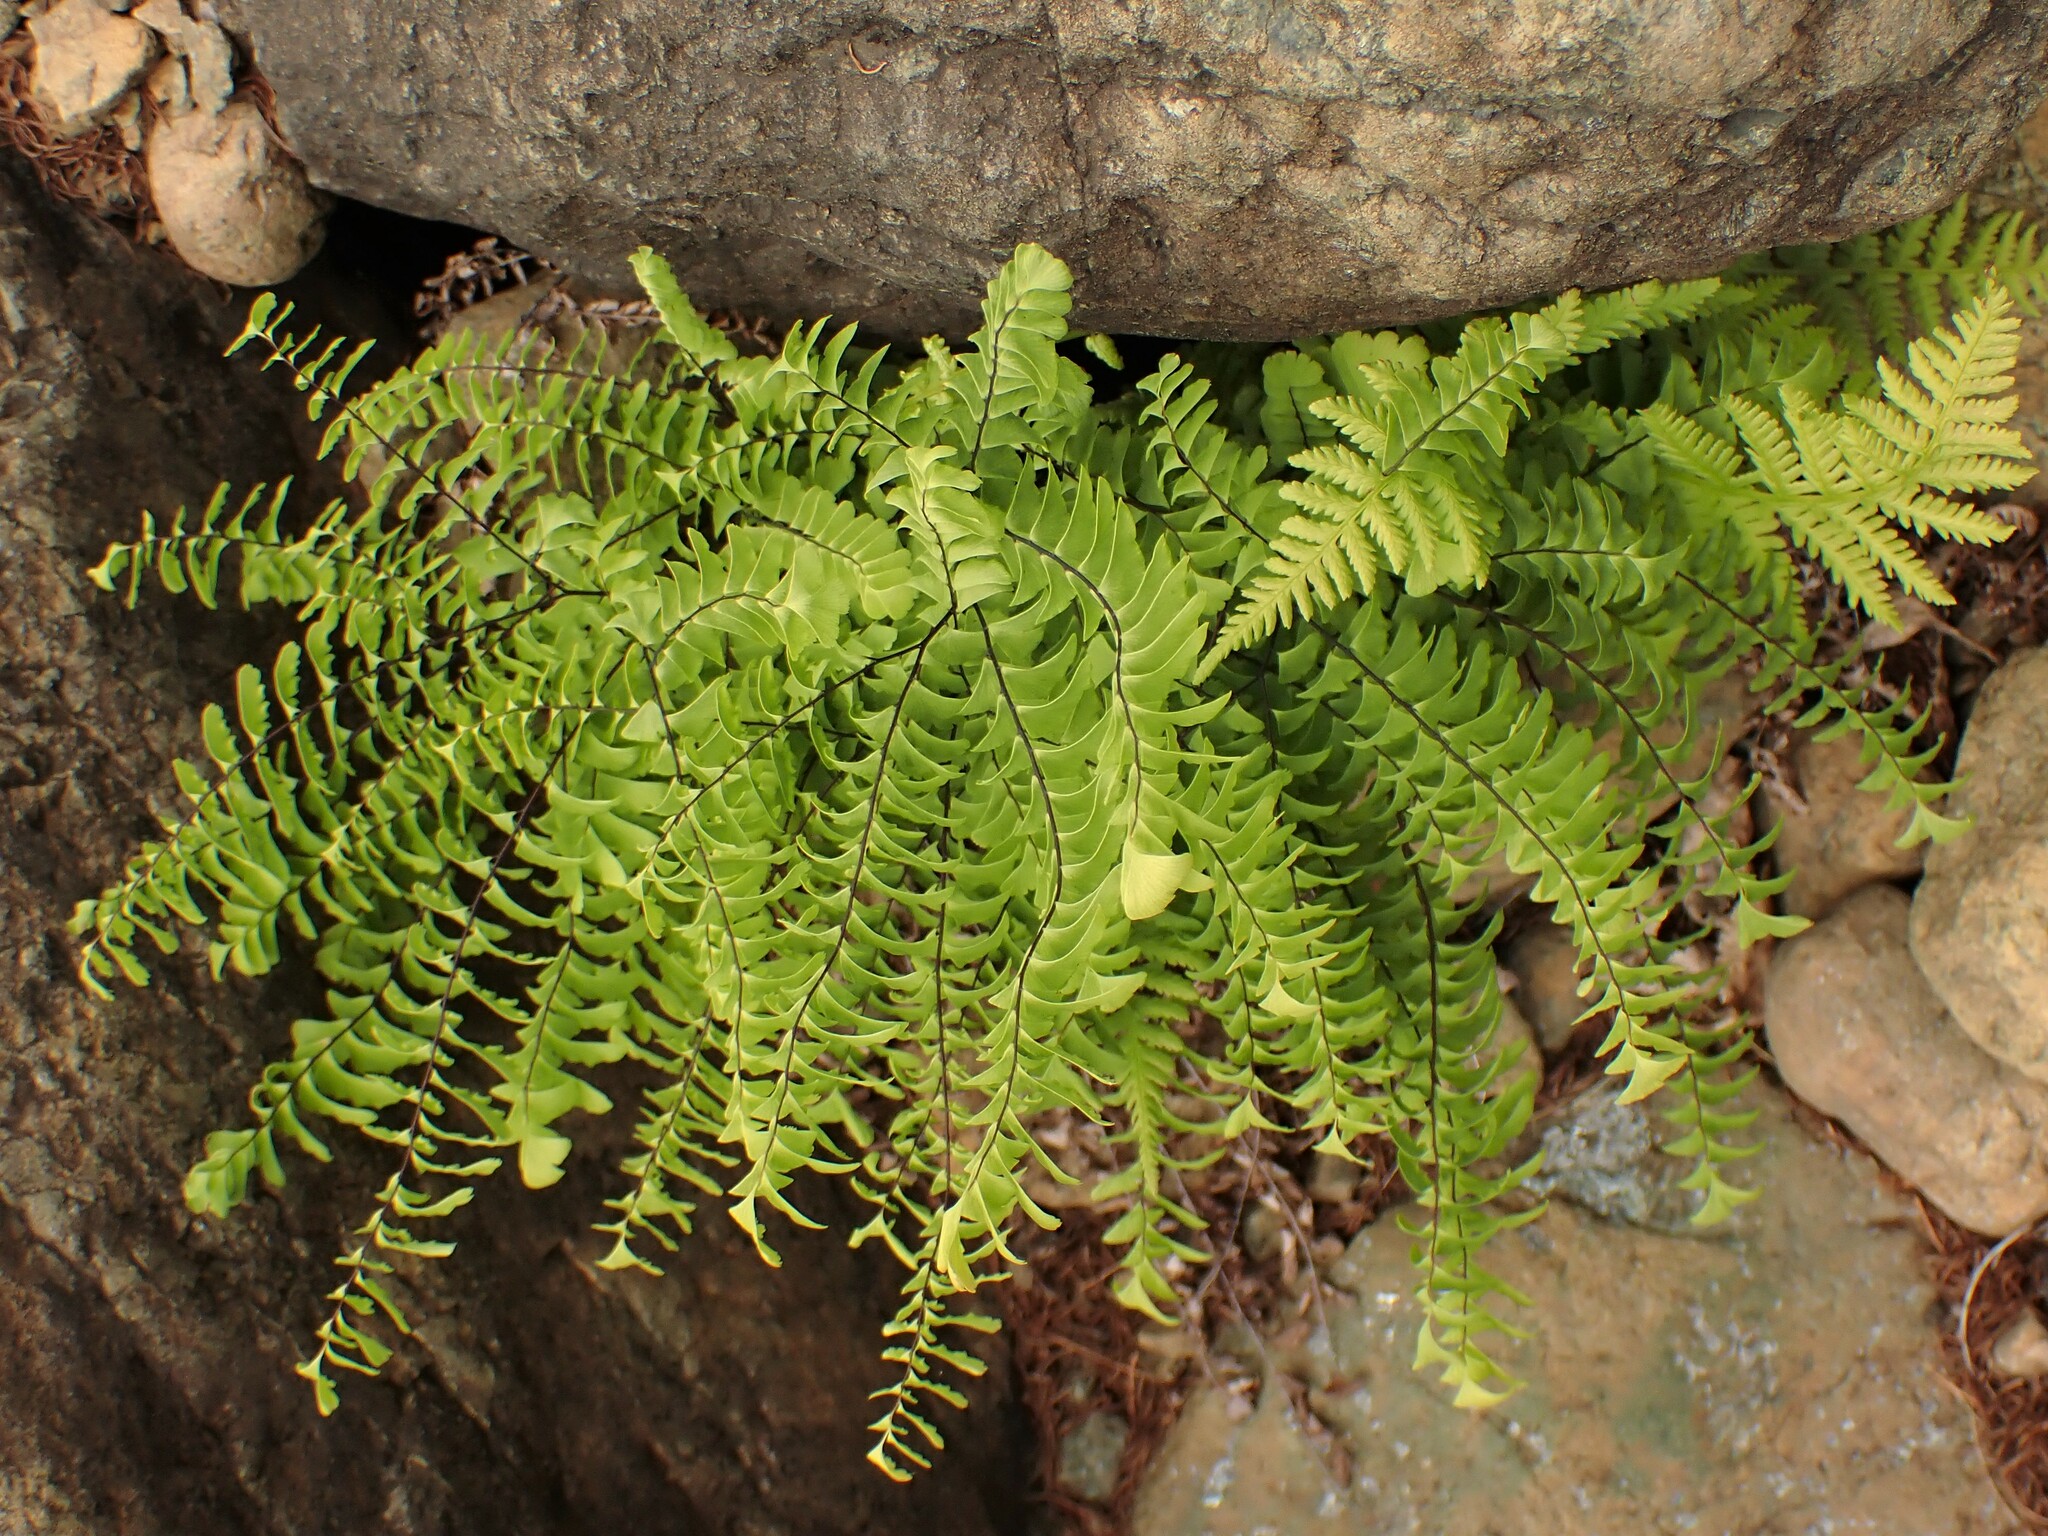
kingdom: Plantae
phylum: Tracheophyta
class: Polypodiopsida
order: Polypodiales
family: Pteridaceae
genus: Adiantum
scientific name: Adiantum aleuticum
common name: Aleutian maidenhair fern
